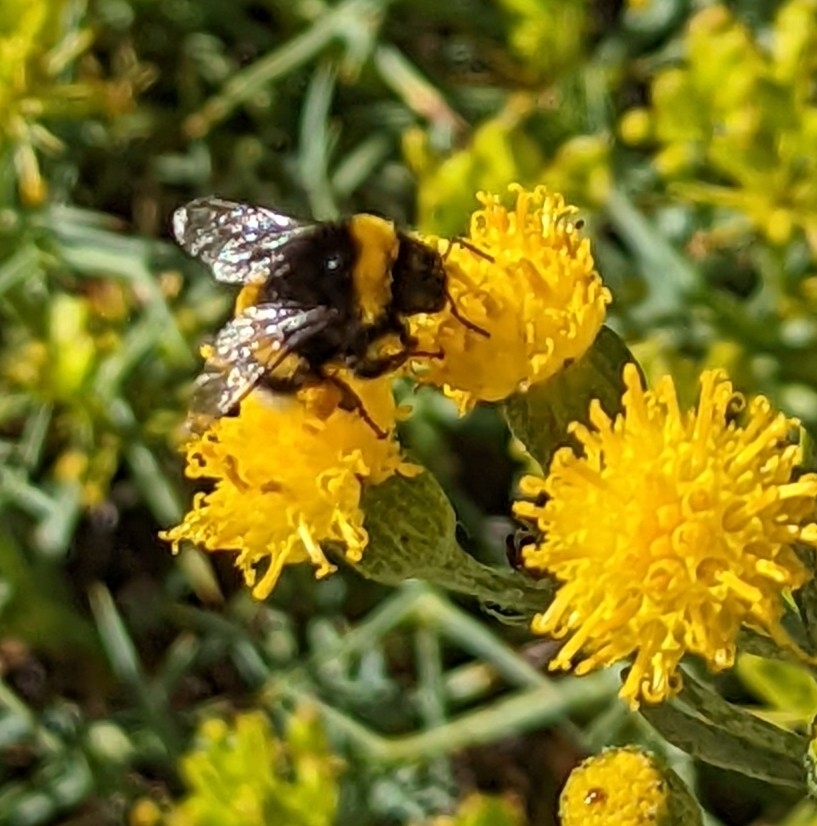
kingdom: Animalia
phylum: Arthropoda
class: Insecta
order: Hymenoptera
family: Apidae
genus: Bombus
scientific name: Bombus terrestris
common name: Buff-tailed bumblebee
